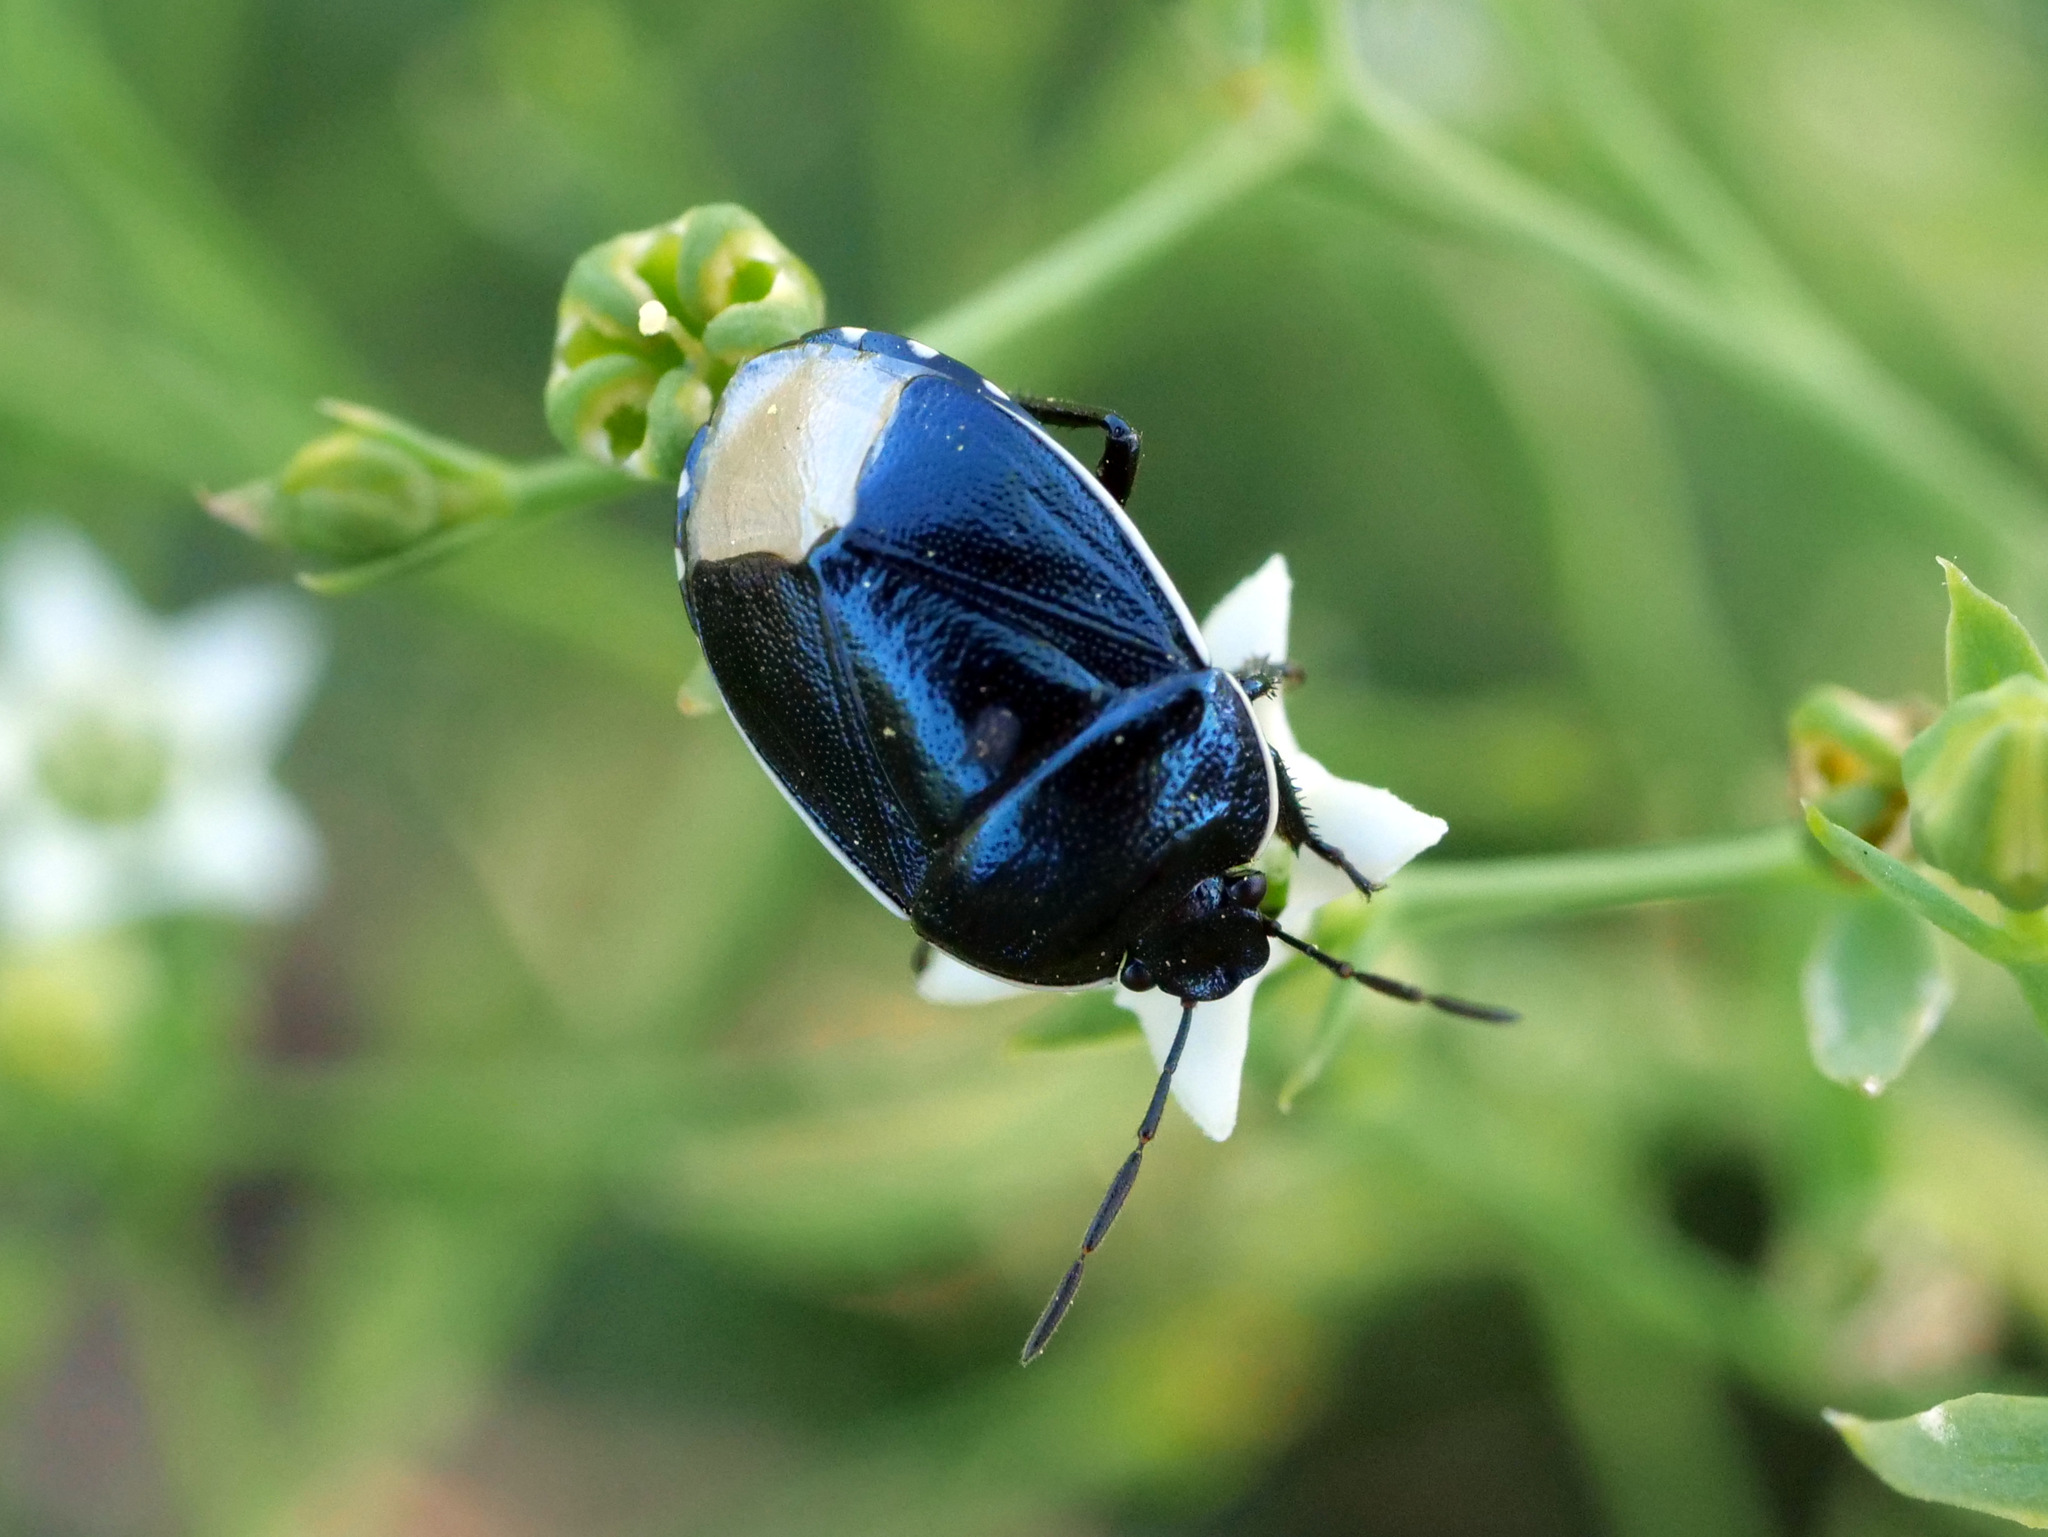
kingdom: Animalia
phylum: Arthropoda
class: Insecta
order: Hemiptera
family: Cydnidae
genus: Canthophorus
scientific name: Canthophorus
